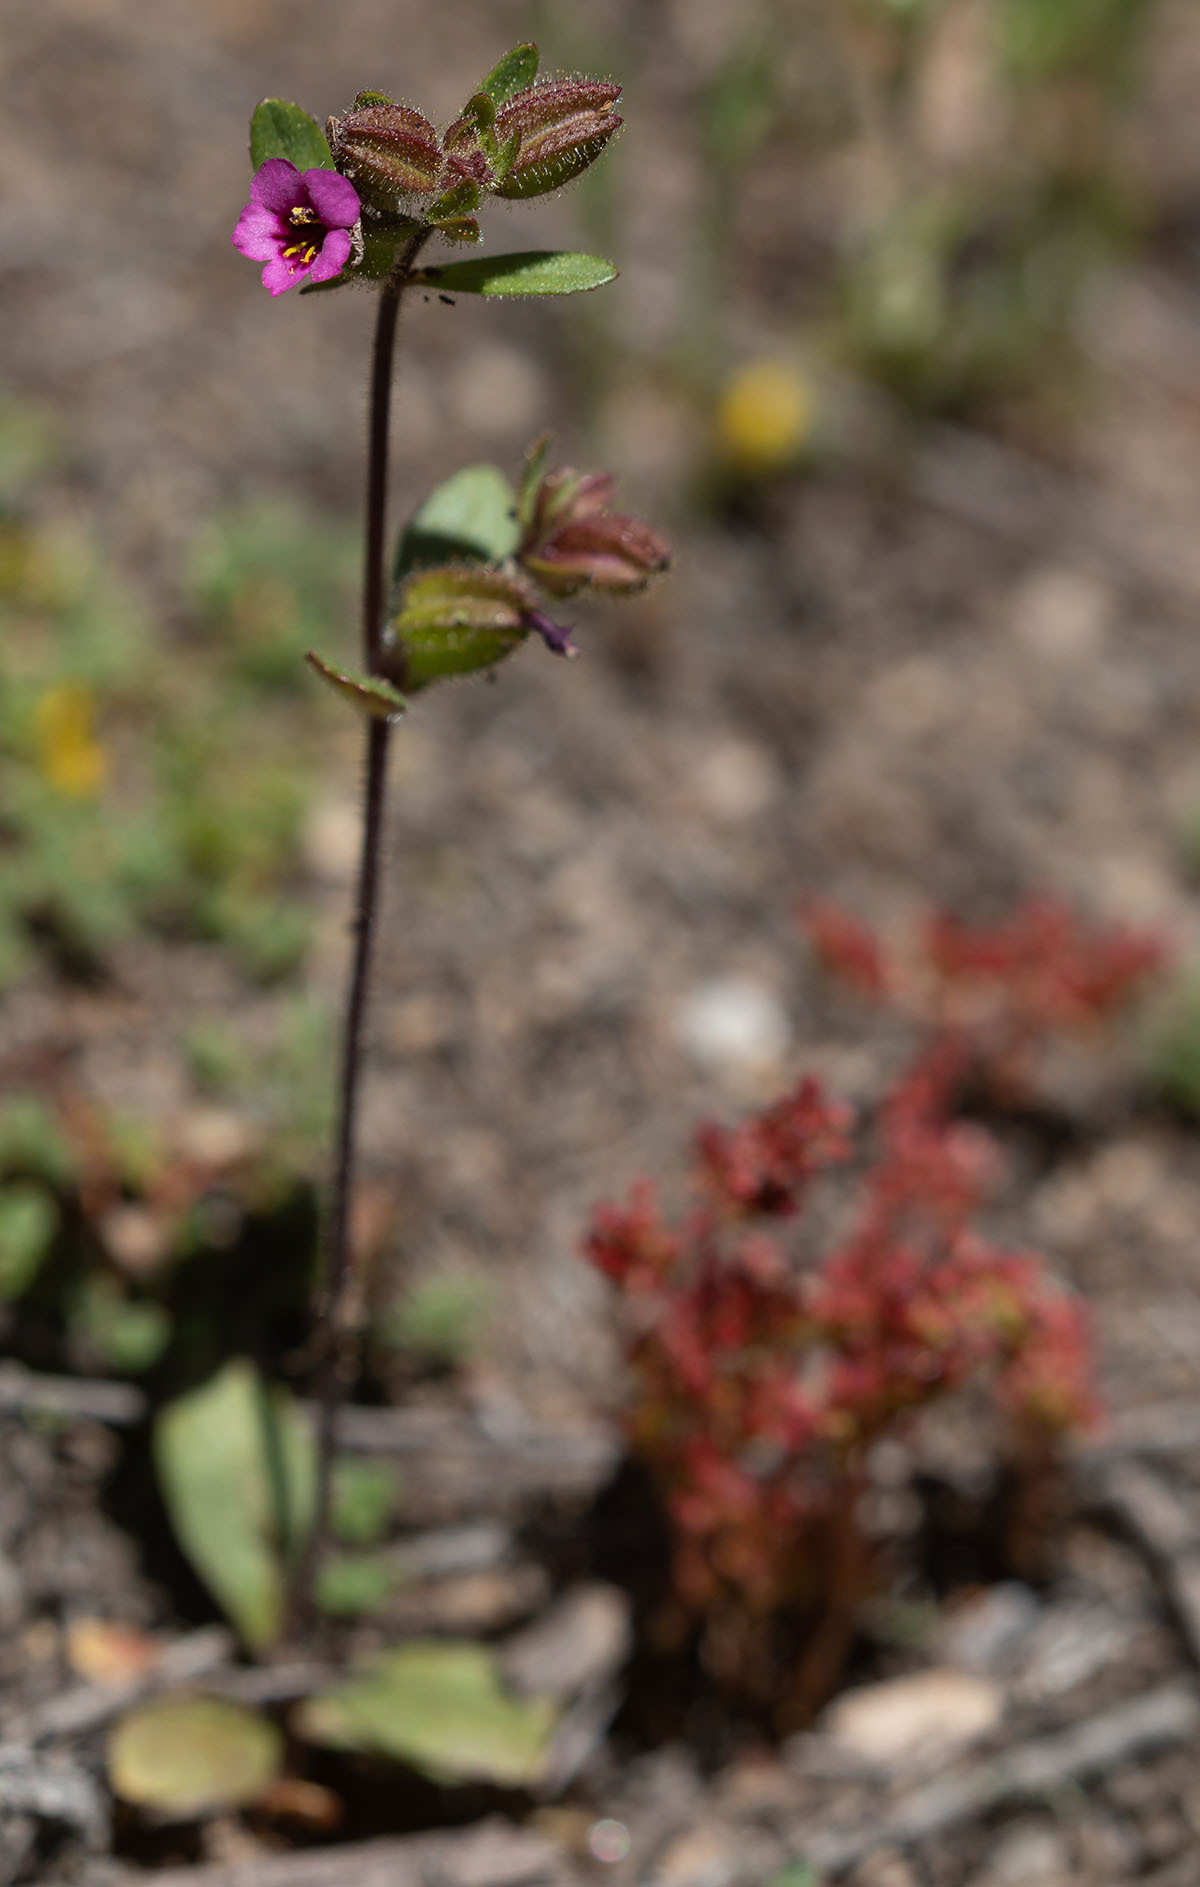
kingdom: Plantae
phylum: Tracheophyta
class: Magnoliopsida
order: Lamiales
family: Phrymaceae
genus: Diplacus
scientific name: Diplacus rattanii
